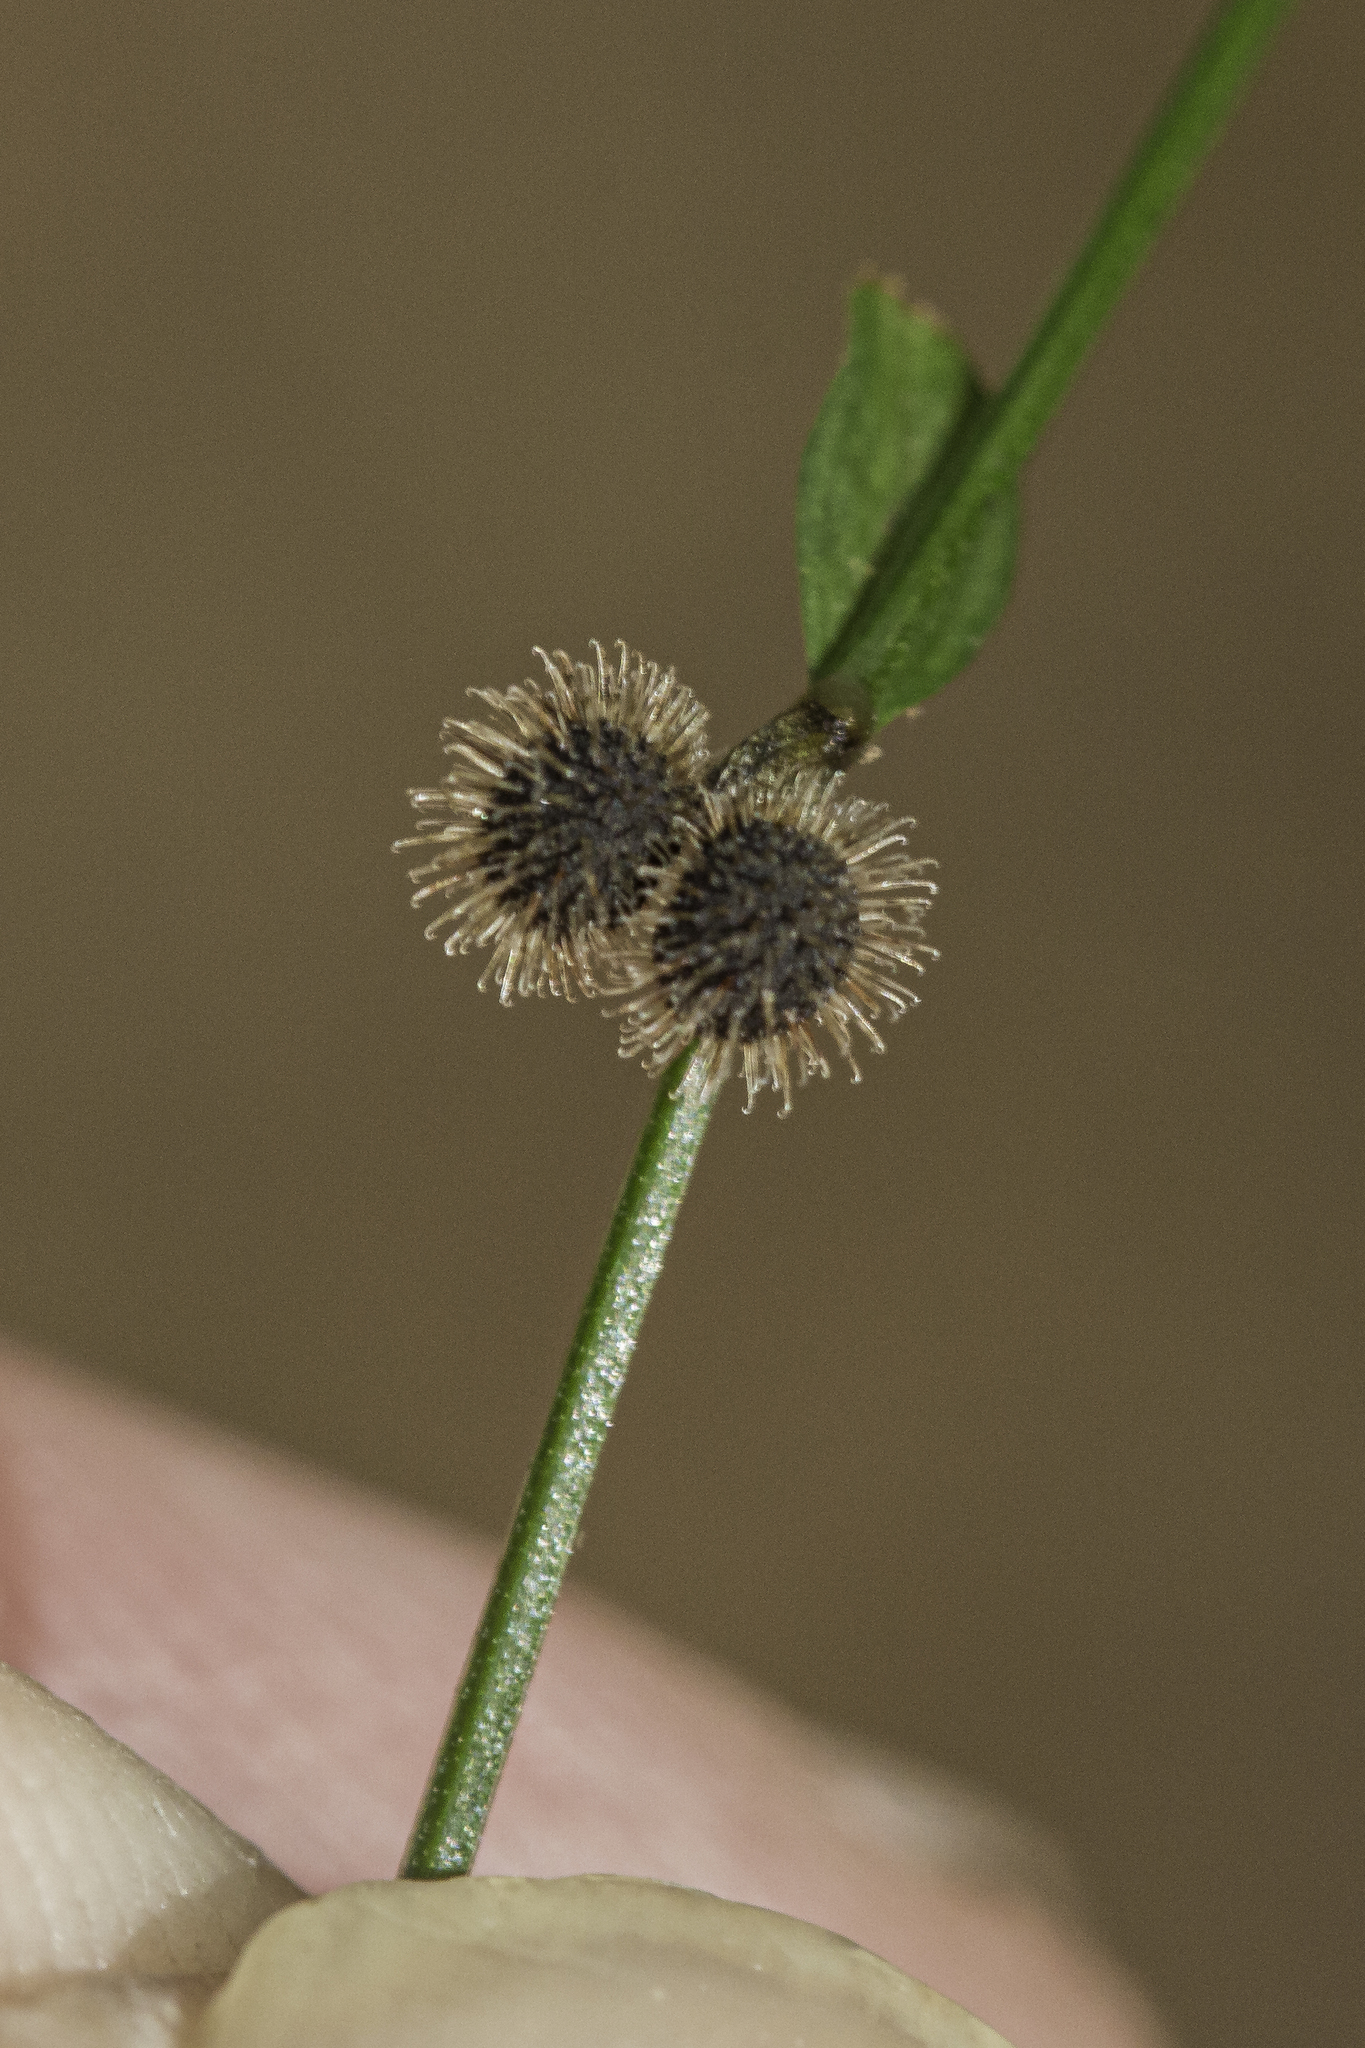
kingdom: Plantae
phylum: Tracheophyta
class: Magnoliopsida
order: Gentianales
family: Rubiaceae
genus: Galium
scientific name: Galium circaezans
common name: Forest bedstraw
